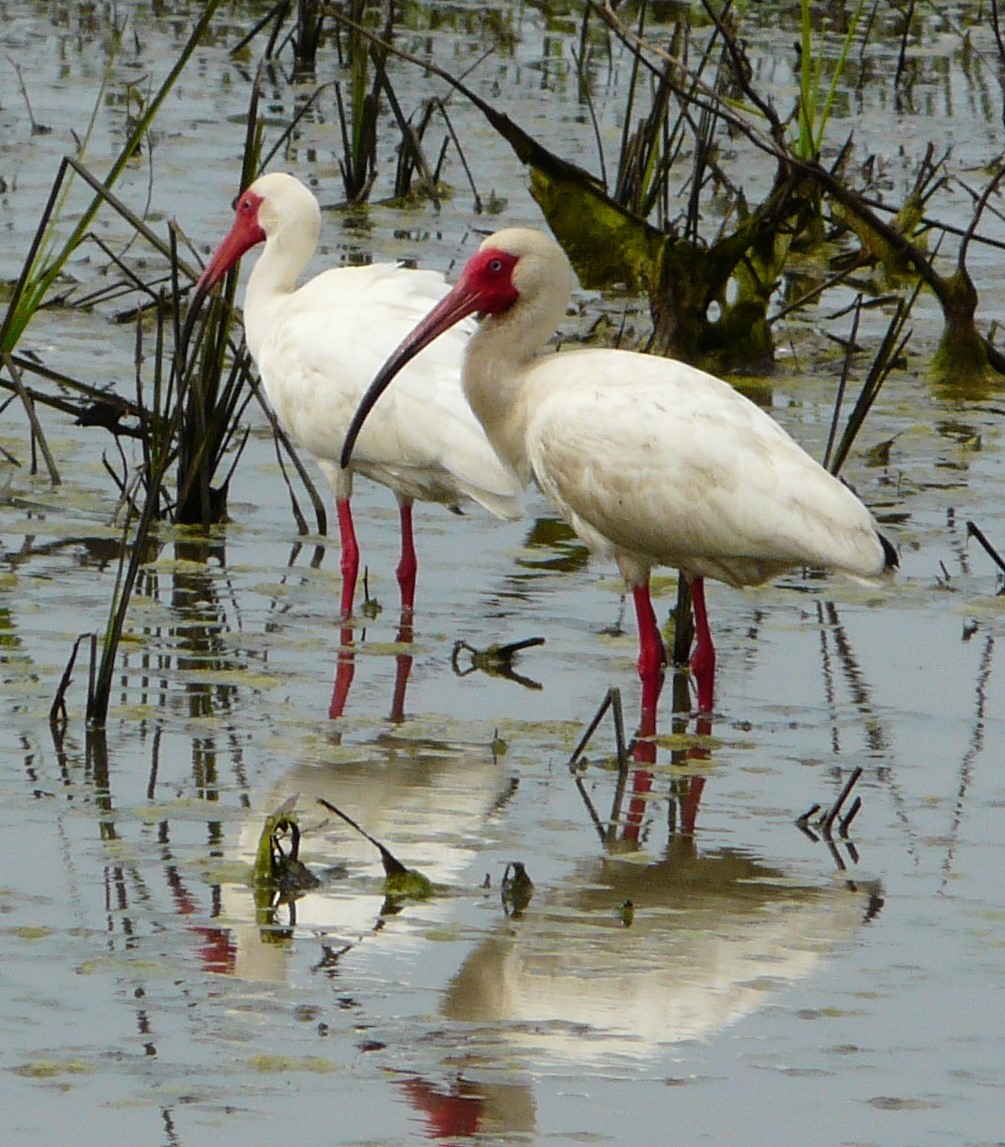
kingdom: Animalia
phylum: Chordata
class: Aves
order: Pelecaniformes
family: Threskiornithidae
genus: Eudocimus
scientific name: Eudocimus albus
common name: White ibis
